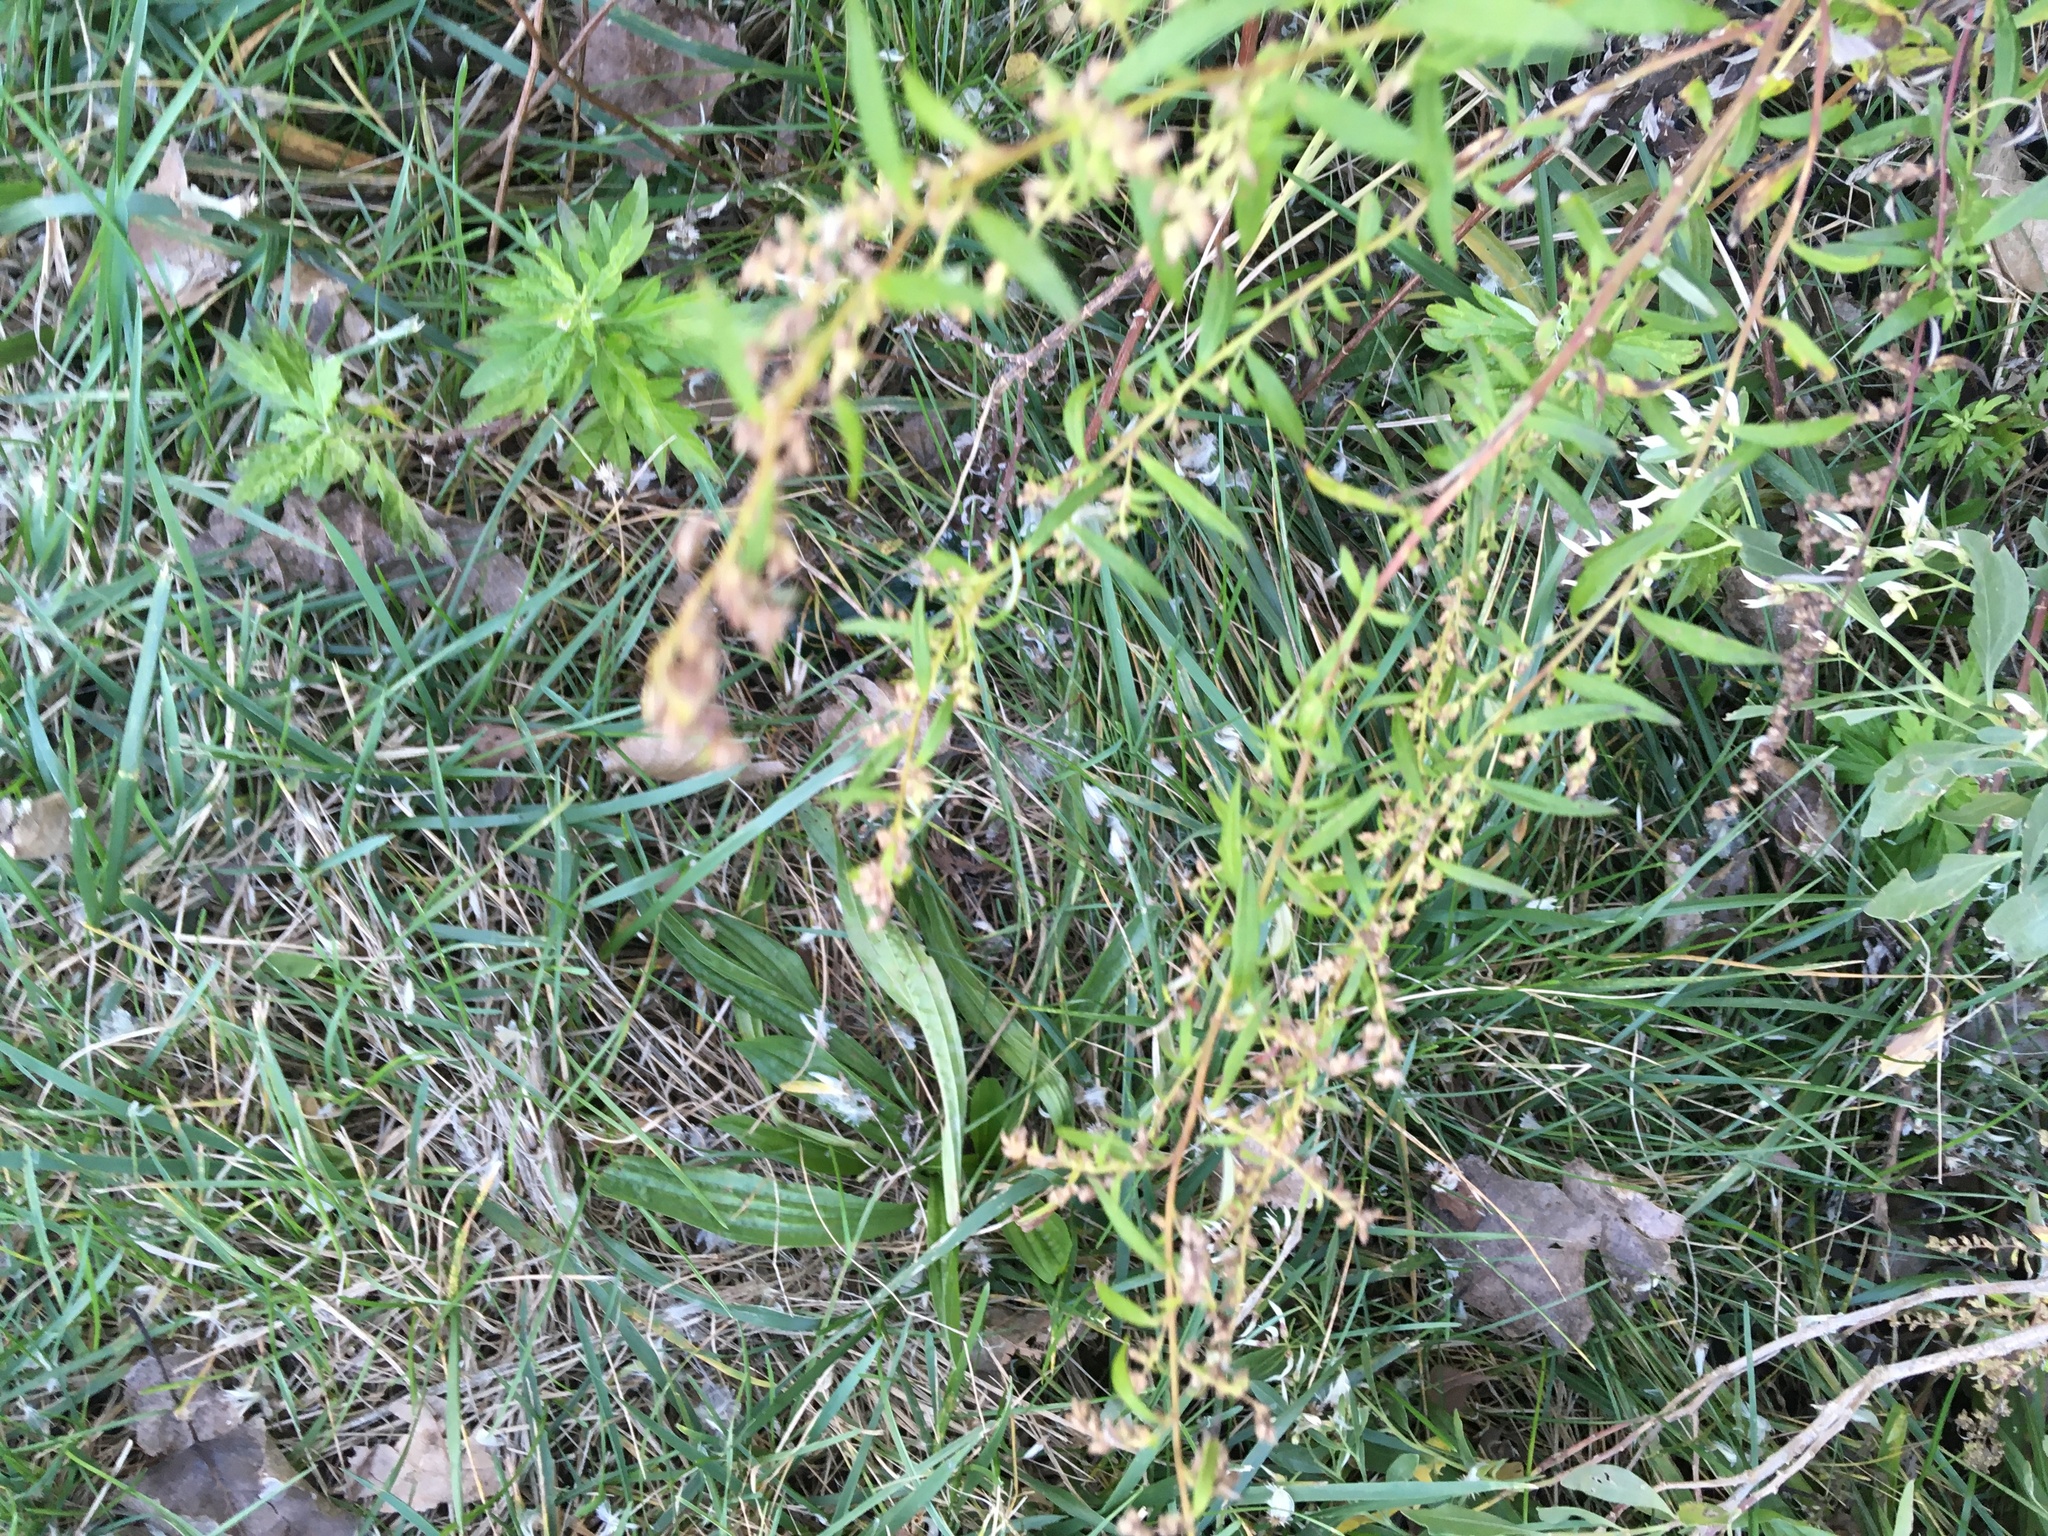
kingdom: Plantae
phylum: Tracheophyta
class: Magnoliopsida
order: Asterales
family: Asteraceae
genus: Artemisia
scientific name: Artemisia vulgaris
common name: Mugwort
